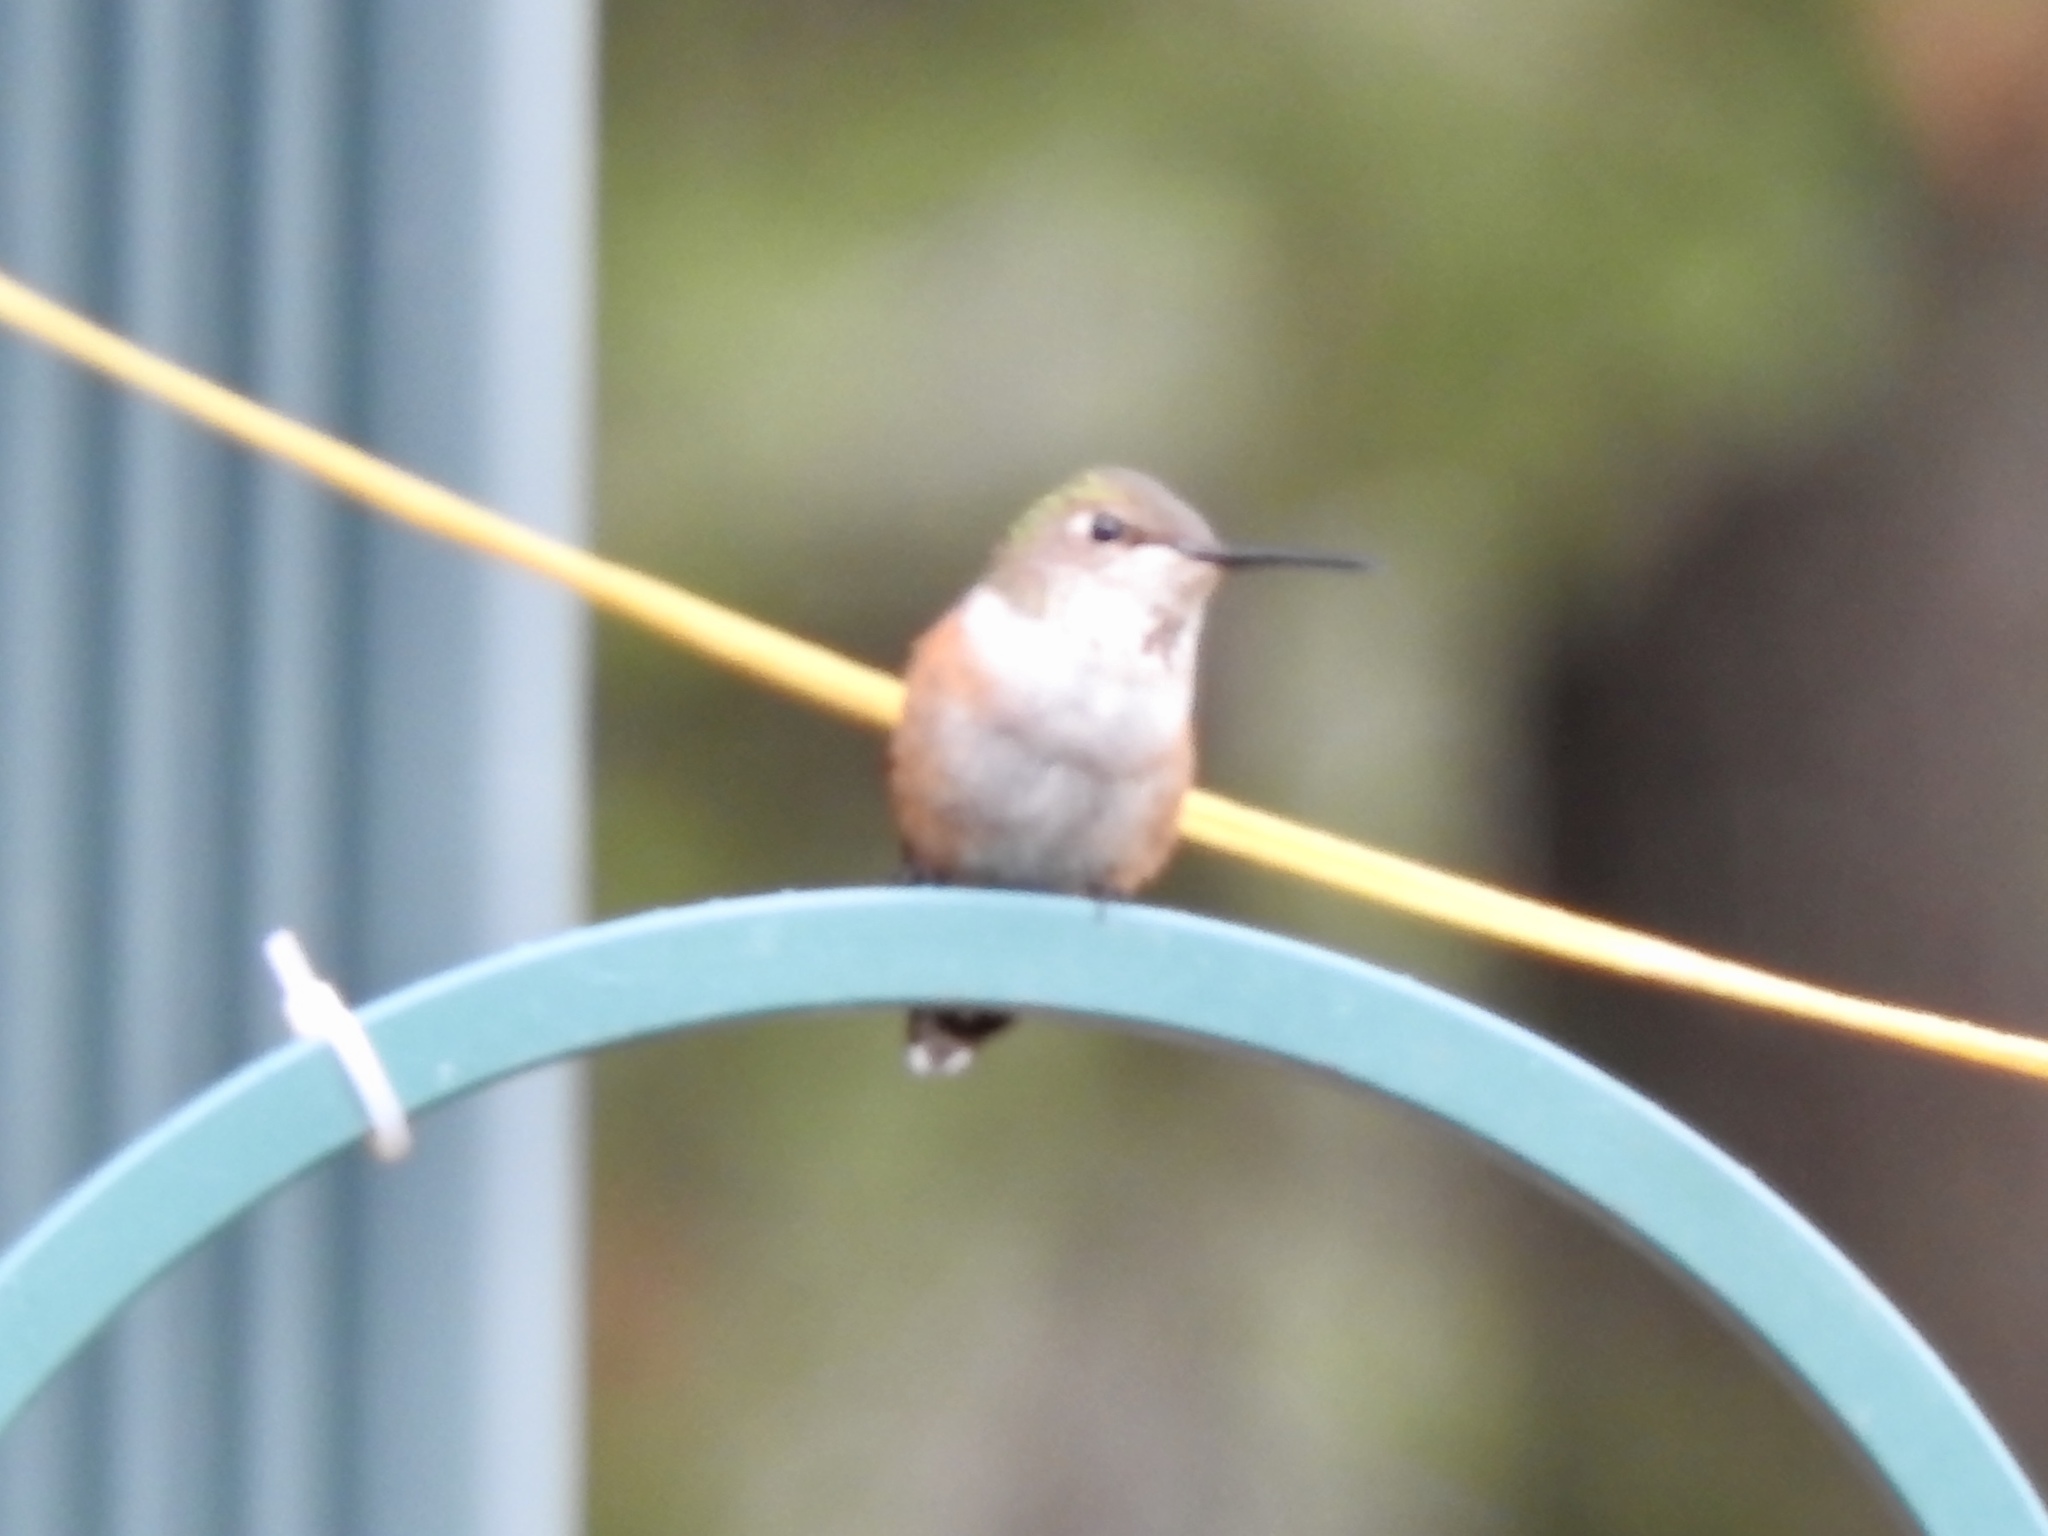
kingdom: Animalia
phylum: Chordata
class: Aves
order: Apodiformes
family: Trochilidae
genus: Selasphorus
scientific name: Selasphorus rufus
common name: Rufous hummingbird
